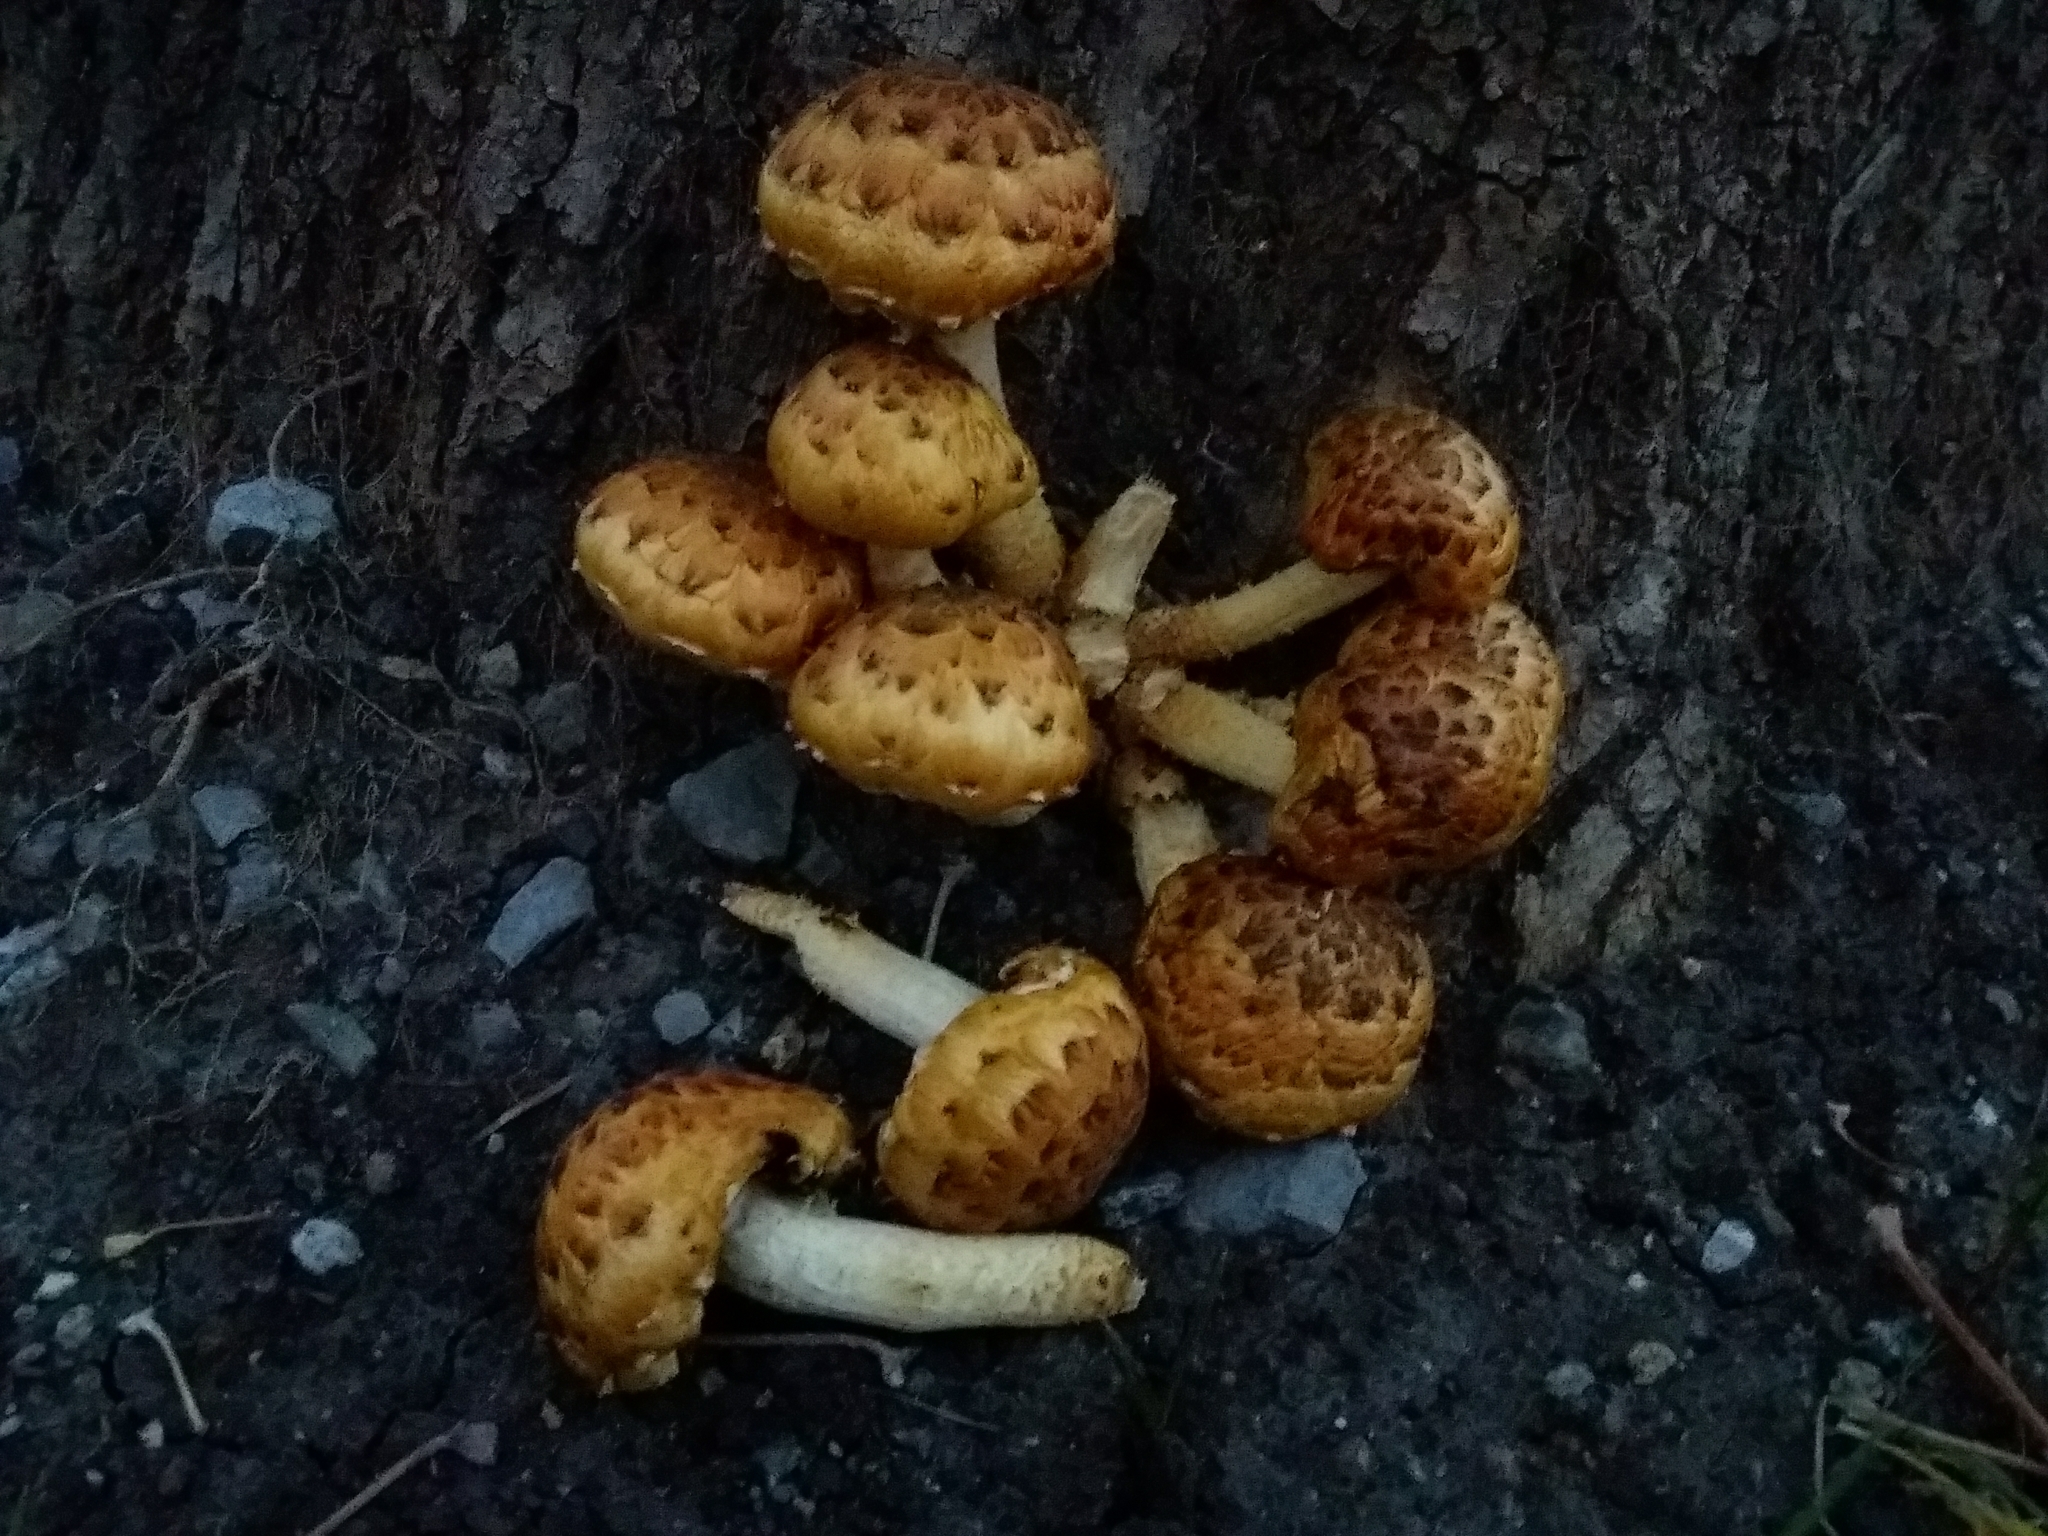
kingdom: Fungi
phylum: Basidiomycota
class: Agaricomycetes
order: Agaricales
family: Strophariaceae
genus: Pholiota
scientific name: Pholiota aurivella
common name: Golden scalycap
